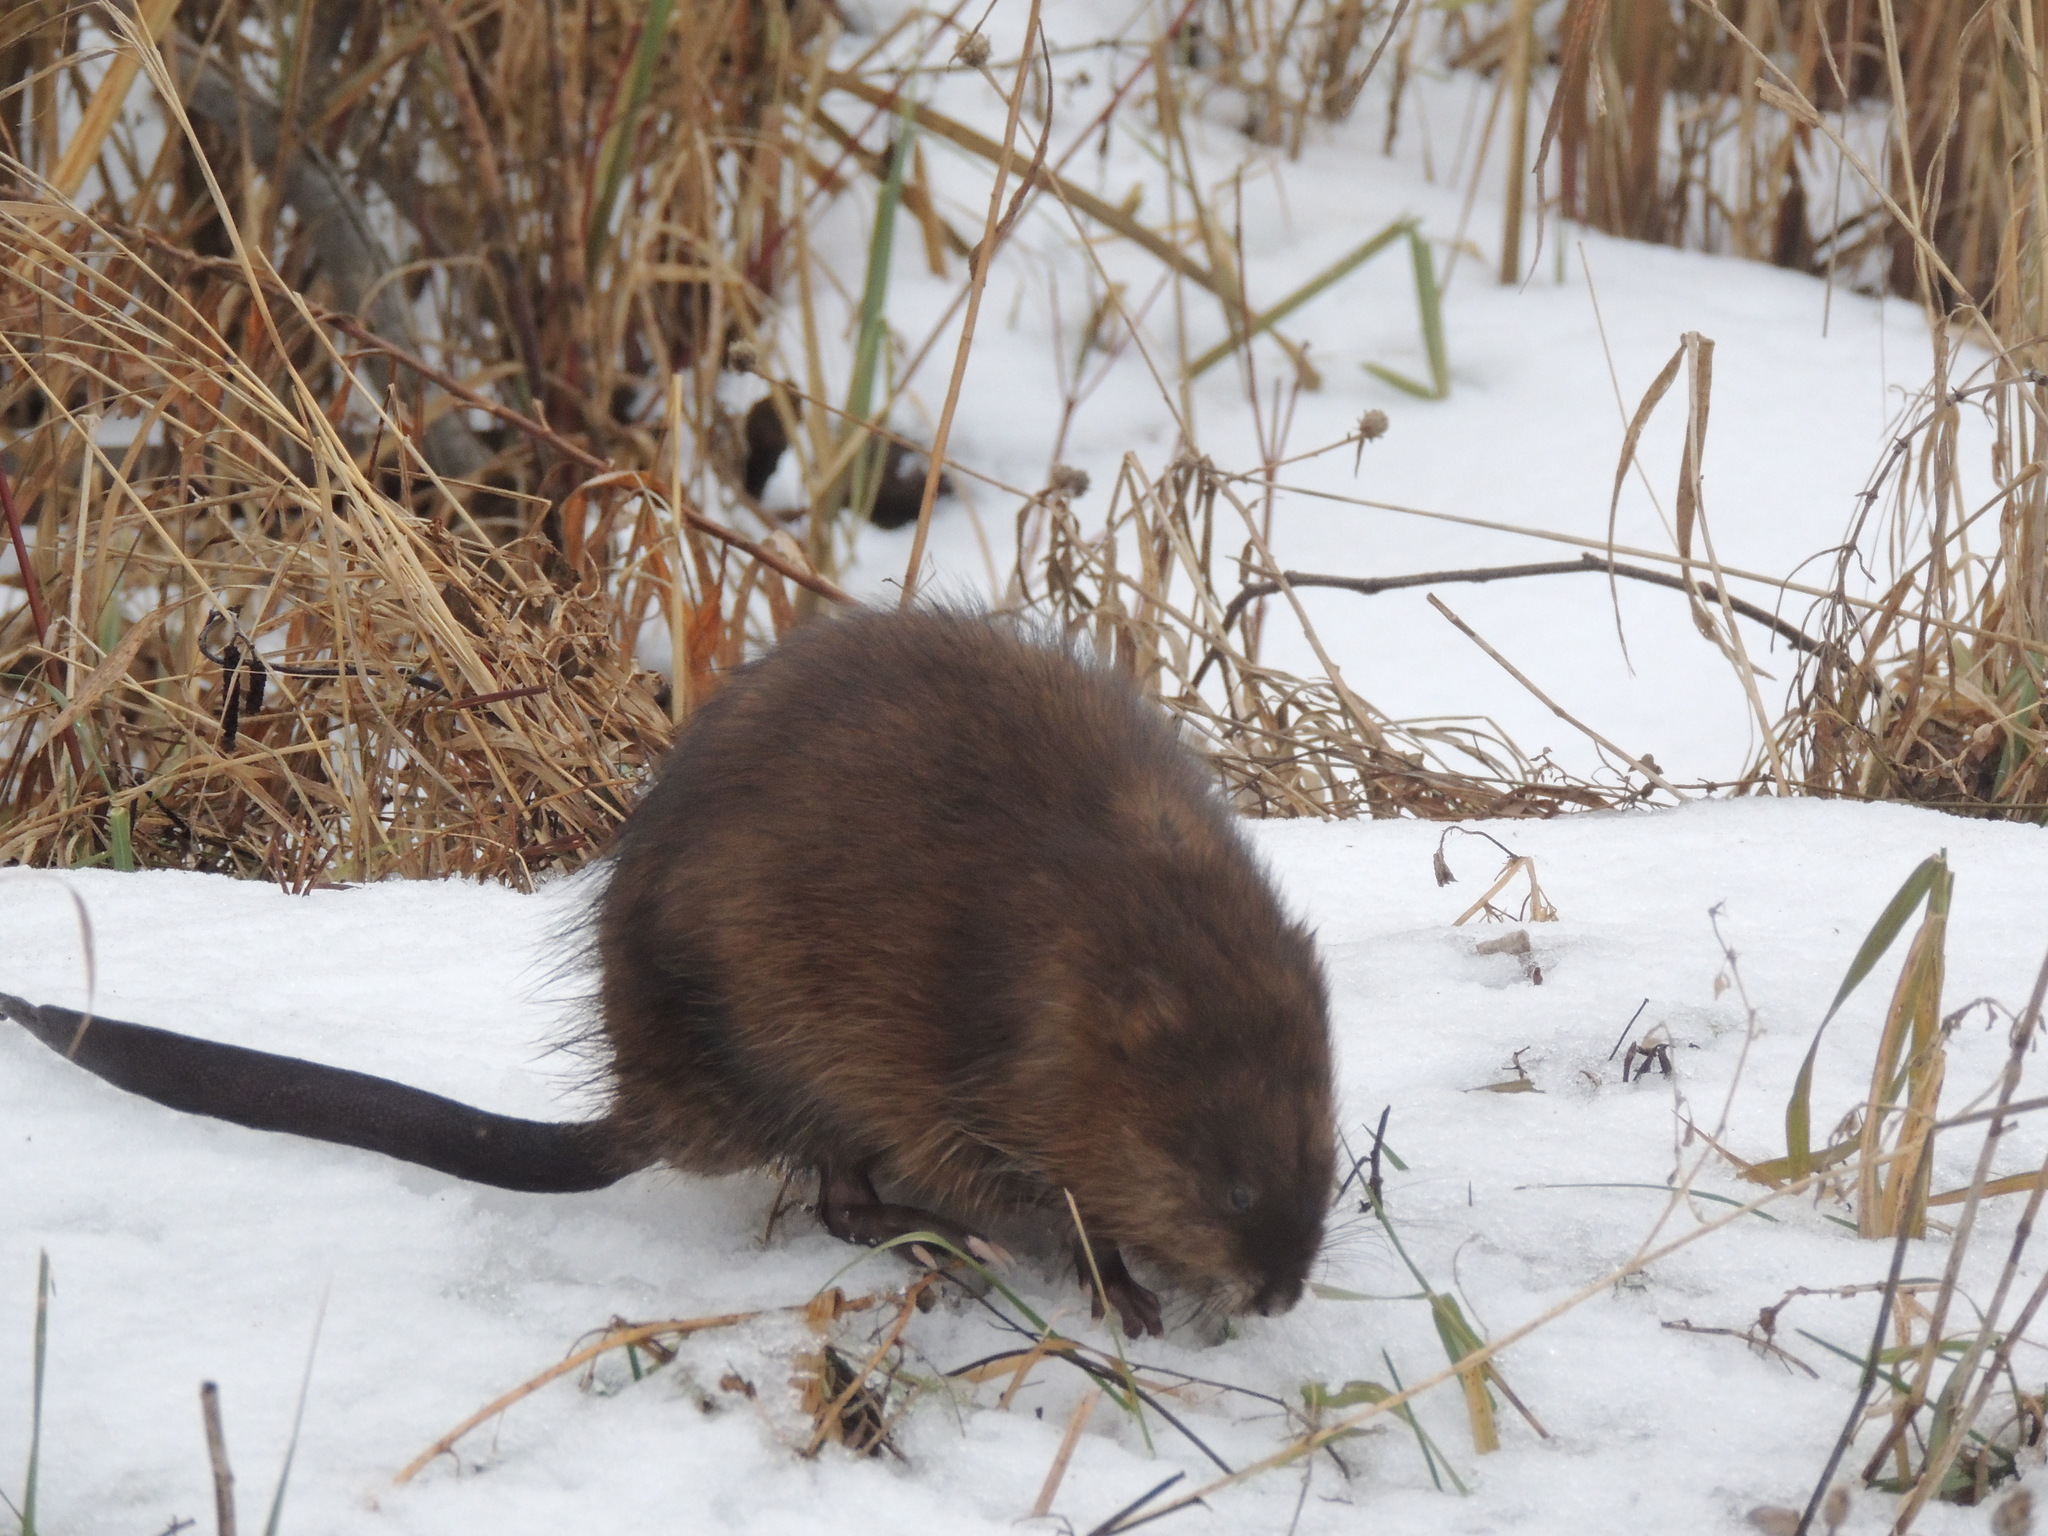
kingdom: Animalia
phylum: Chordata
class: Mammalia
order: Rodentia
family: Cricetidae
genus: Ondatra
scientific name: Ondatra zibethicus
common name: Muskrat
